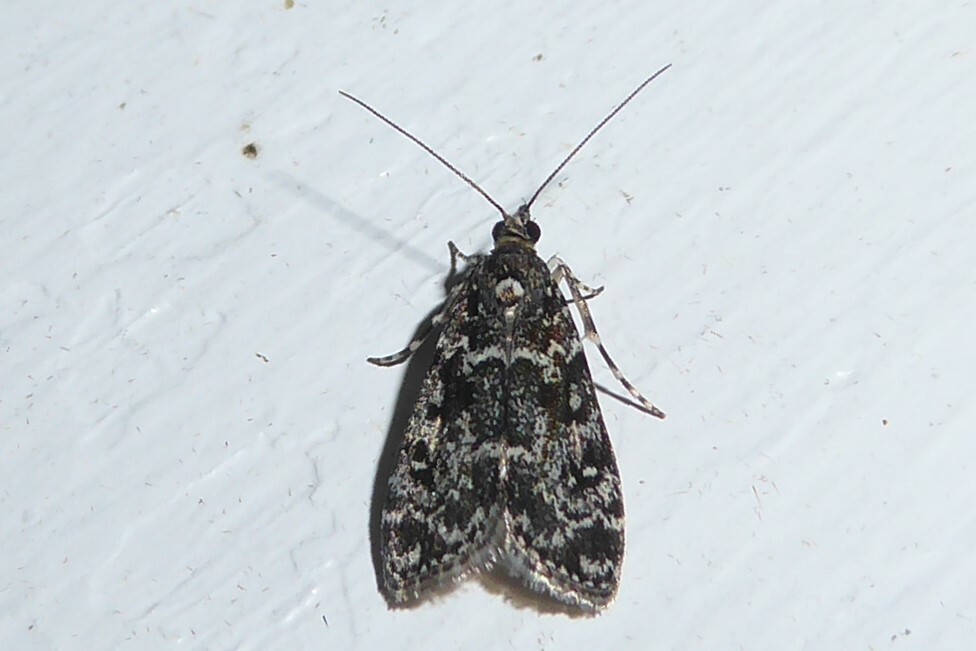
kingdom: Animalia
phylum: Arthropoda
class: Insecta
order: Lepidoptera
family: Crambidae
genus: Eudonia
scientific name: Eudonia philerga
